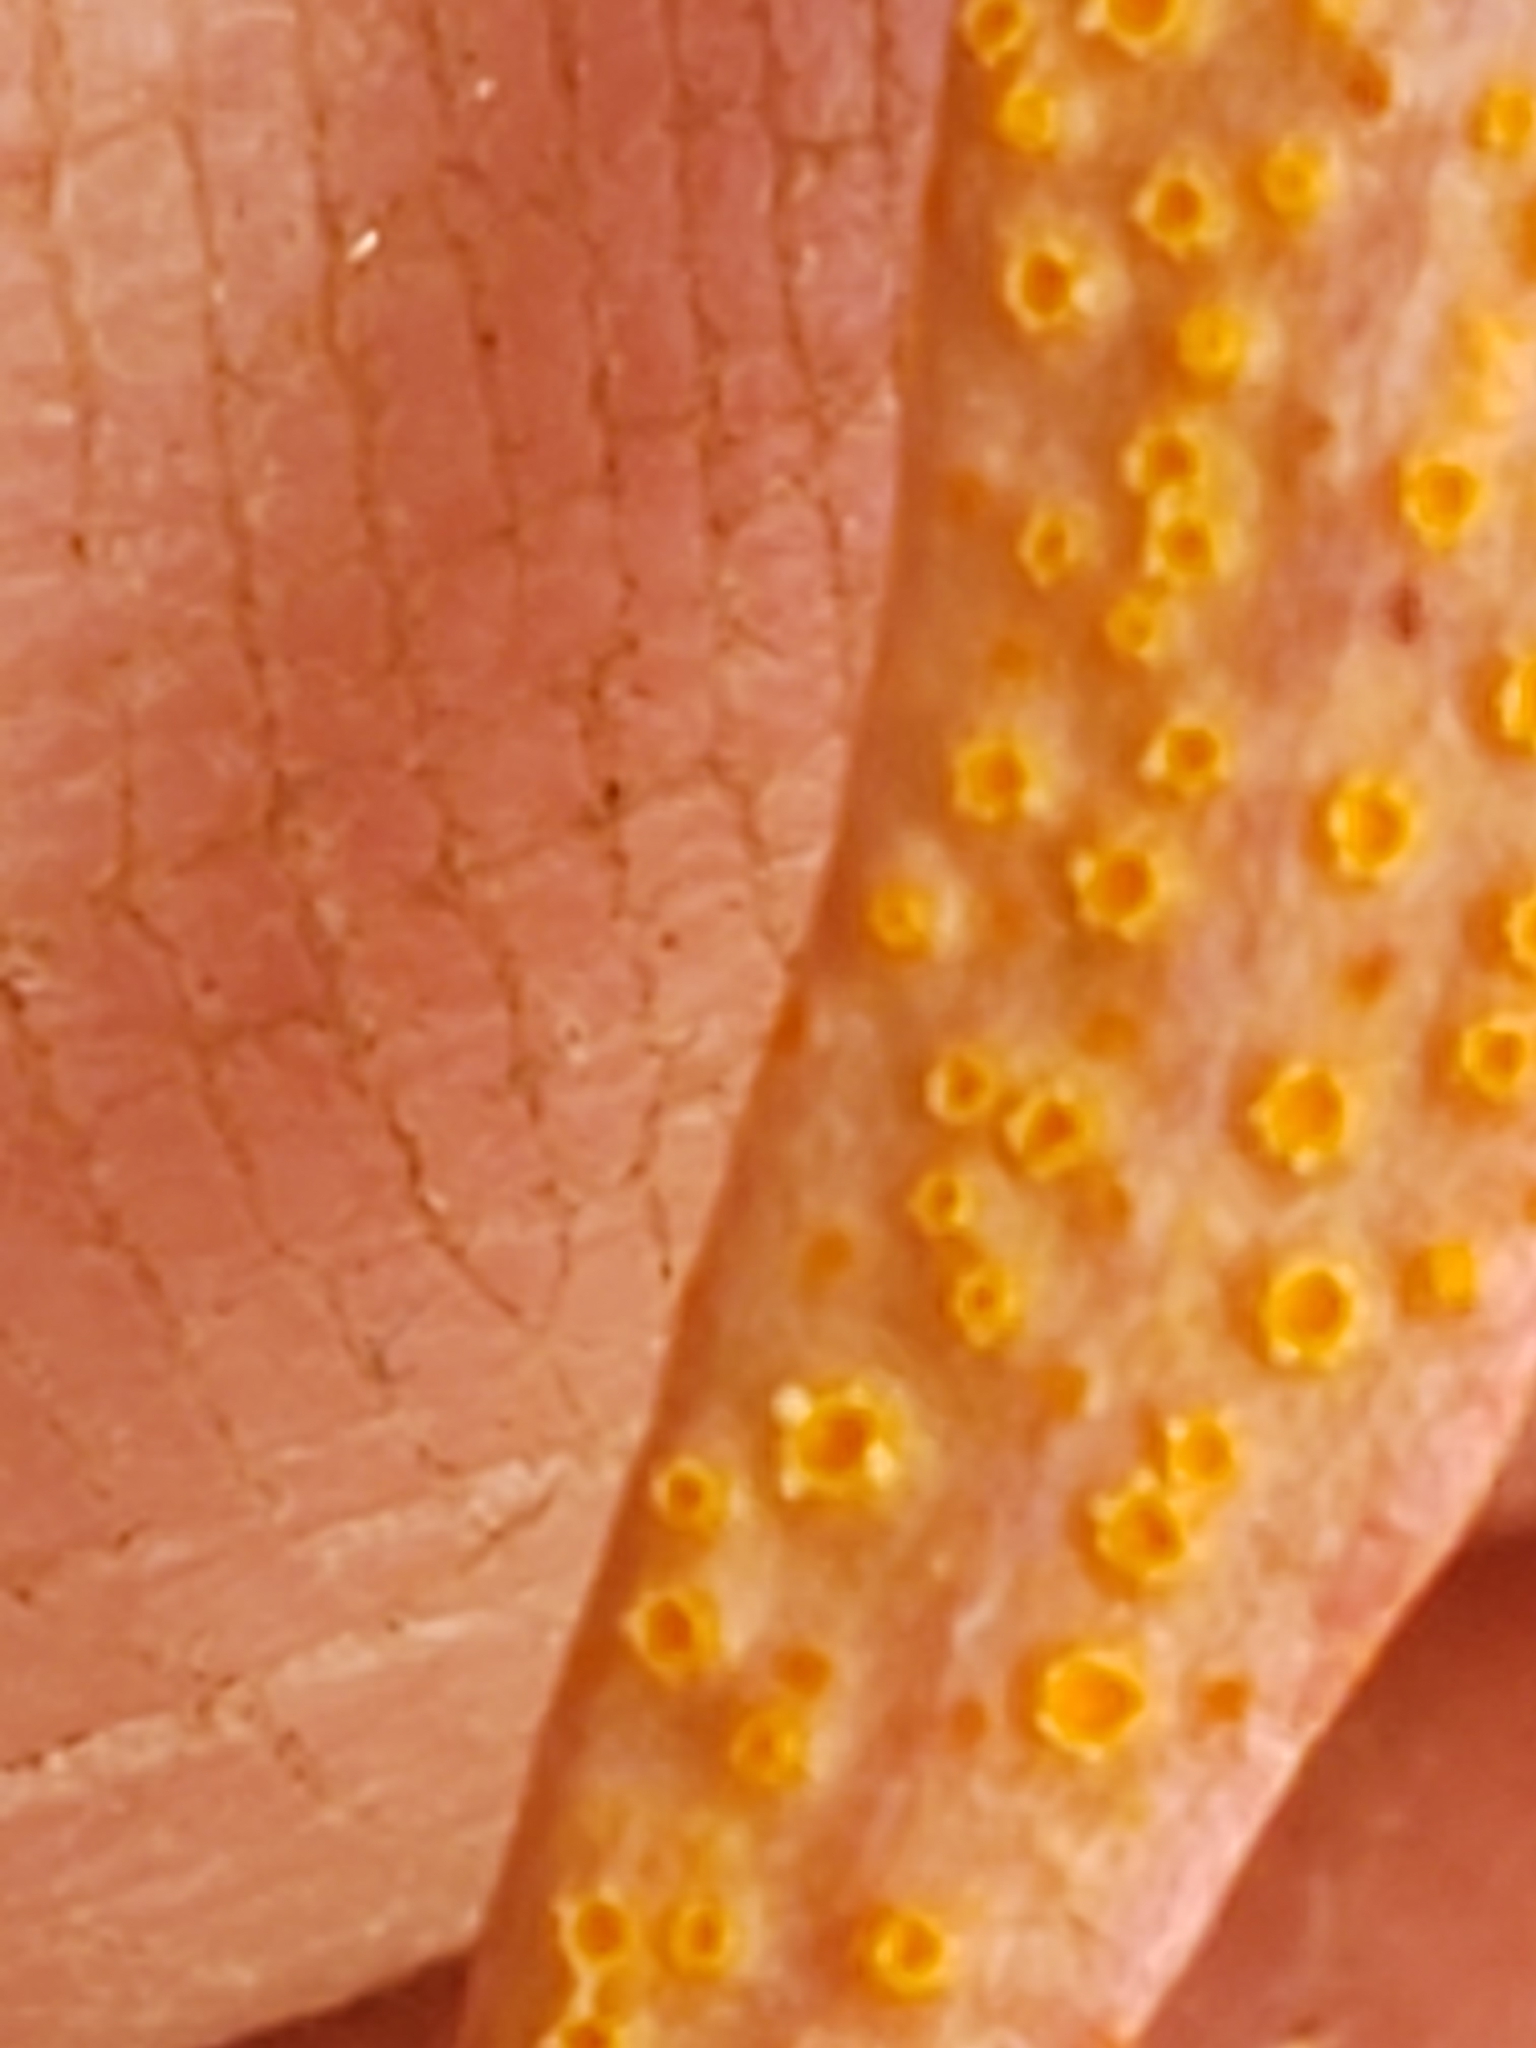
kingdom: Fungi
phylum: Basidiomycota
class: Pucciniomycetes
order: Pucciniales
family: Pucciniaceae
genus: Puccinia
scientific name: Puccinia mariae-wilsoniae
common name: Spring beauty rust
